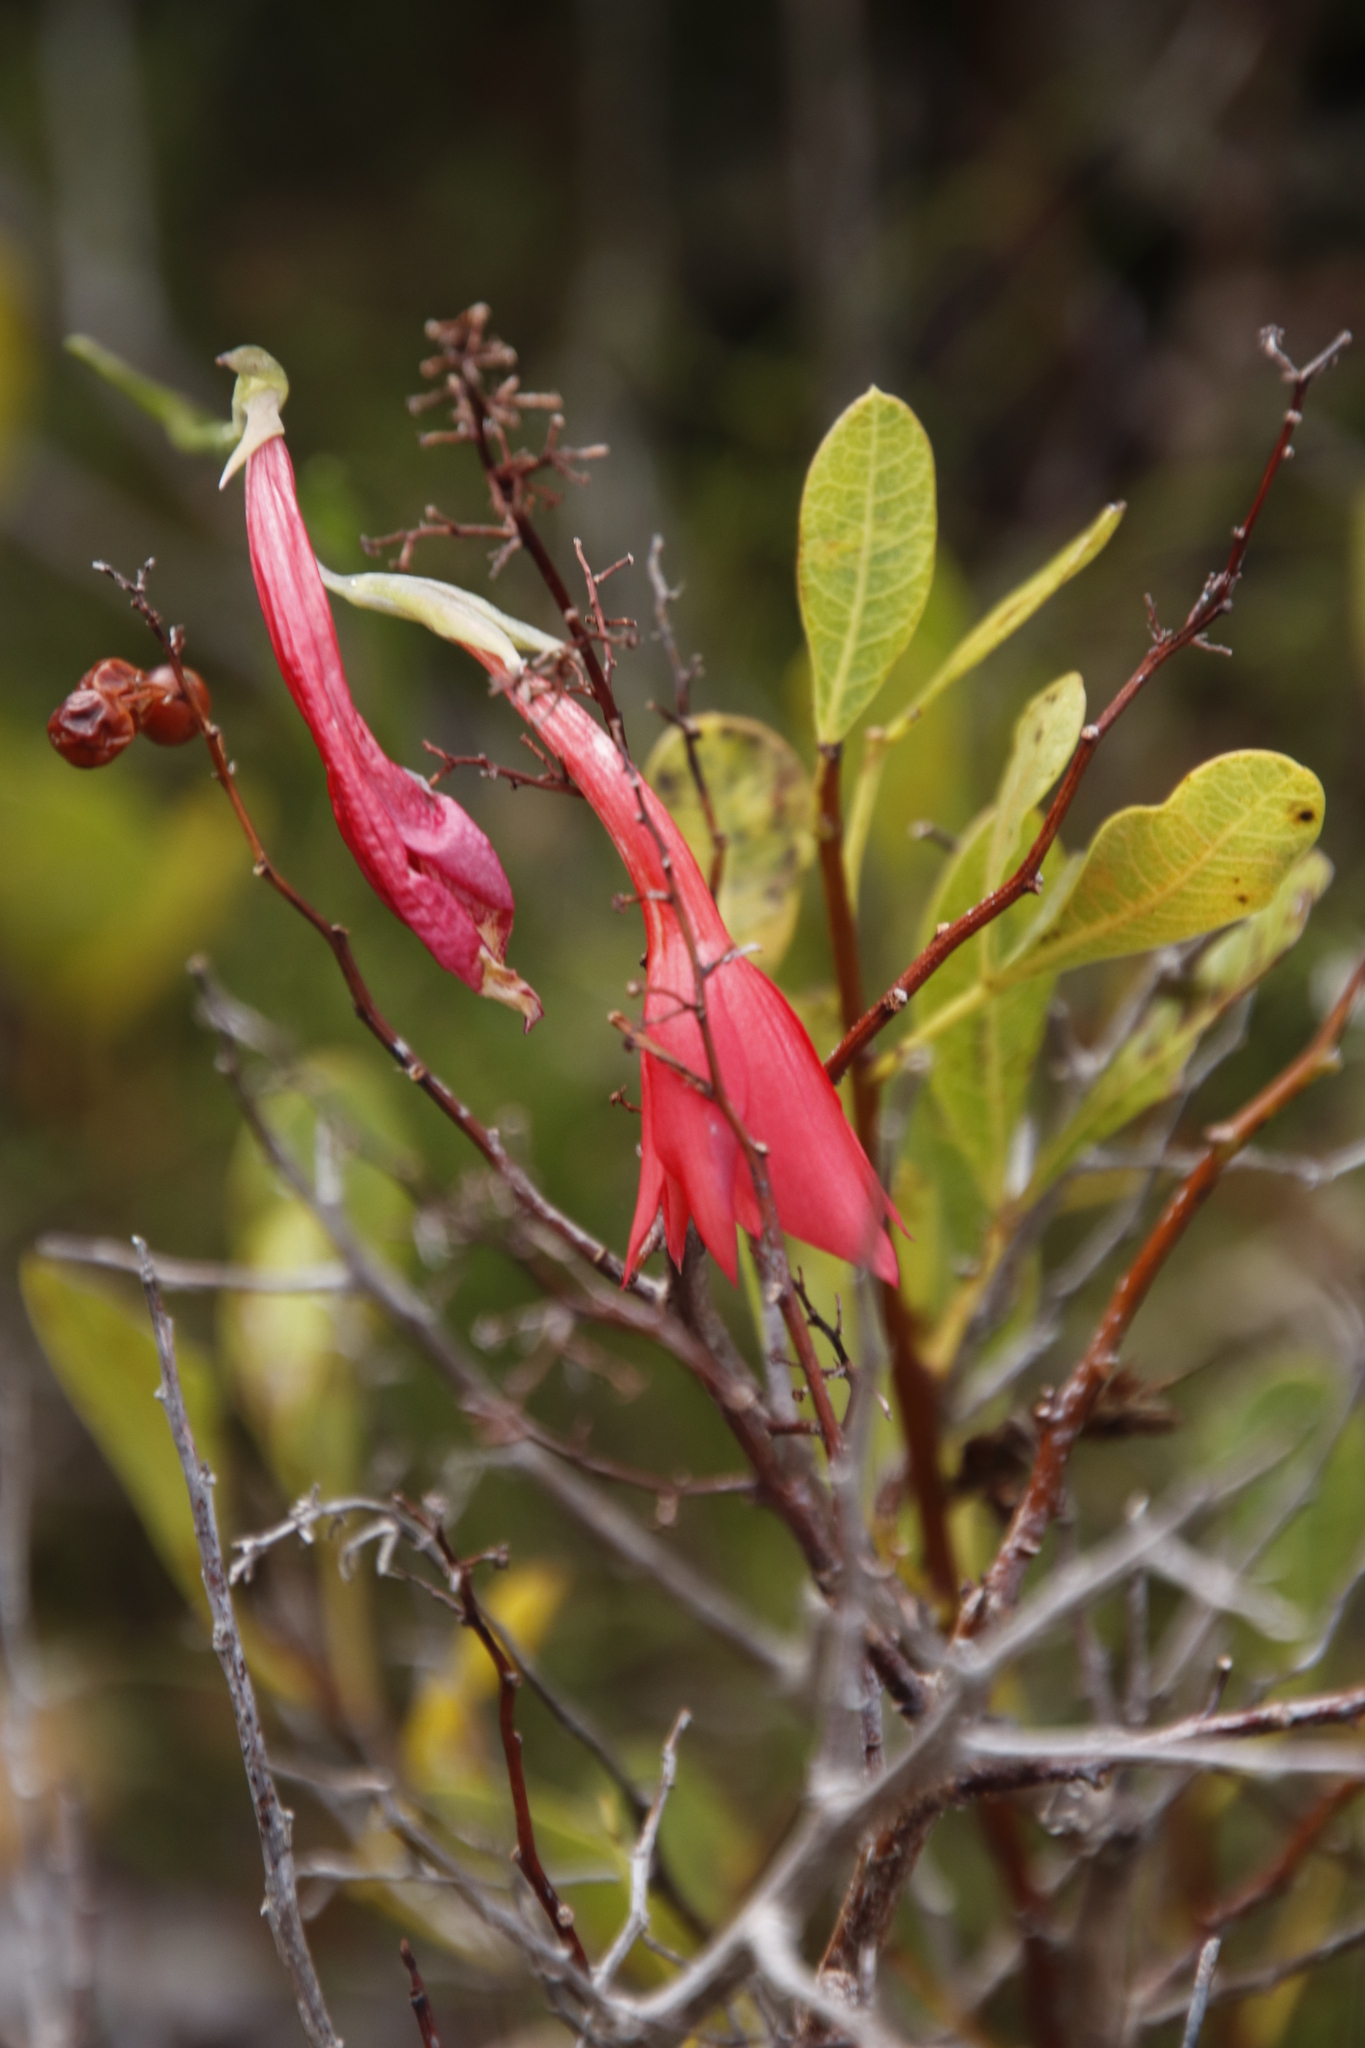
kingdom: Plantae
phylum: Tracheophyta
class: Liliopsida
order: Asparagales
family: Iridaceae
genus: Gladiolus
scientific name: Gladiolus priorii
